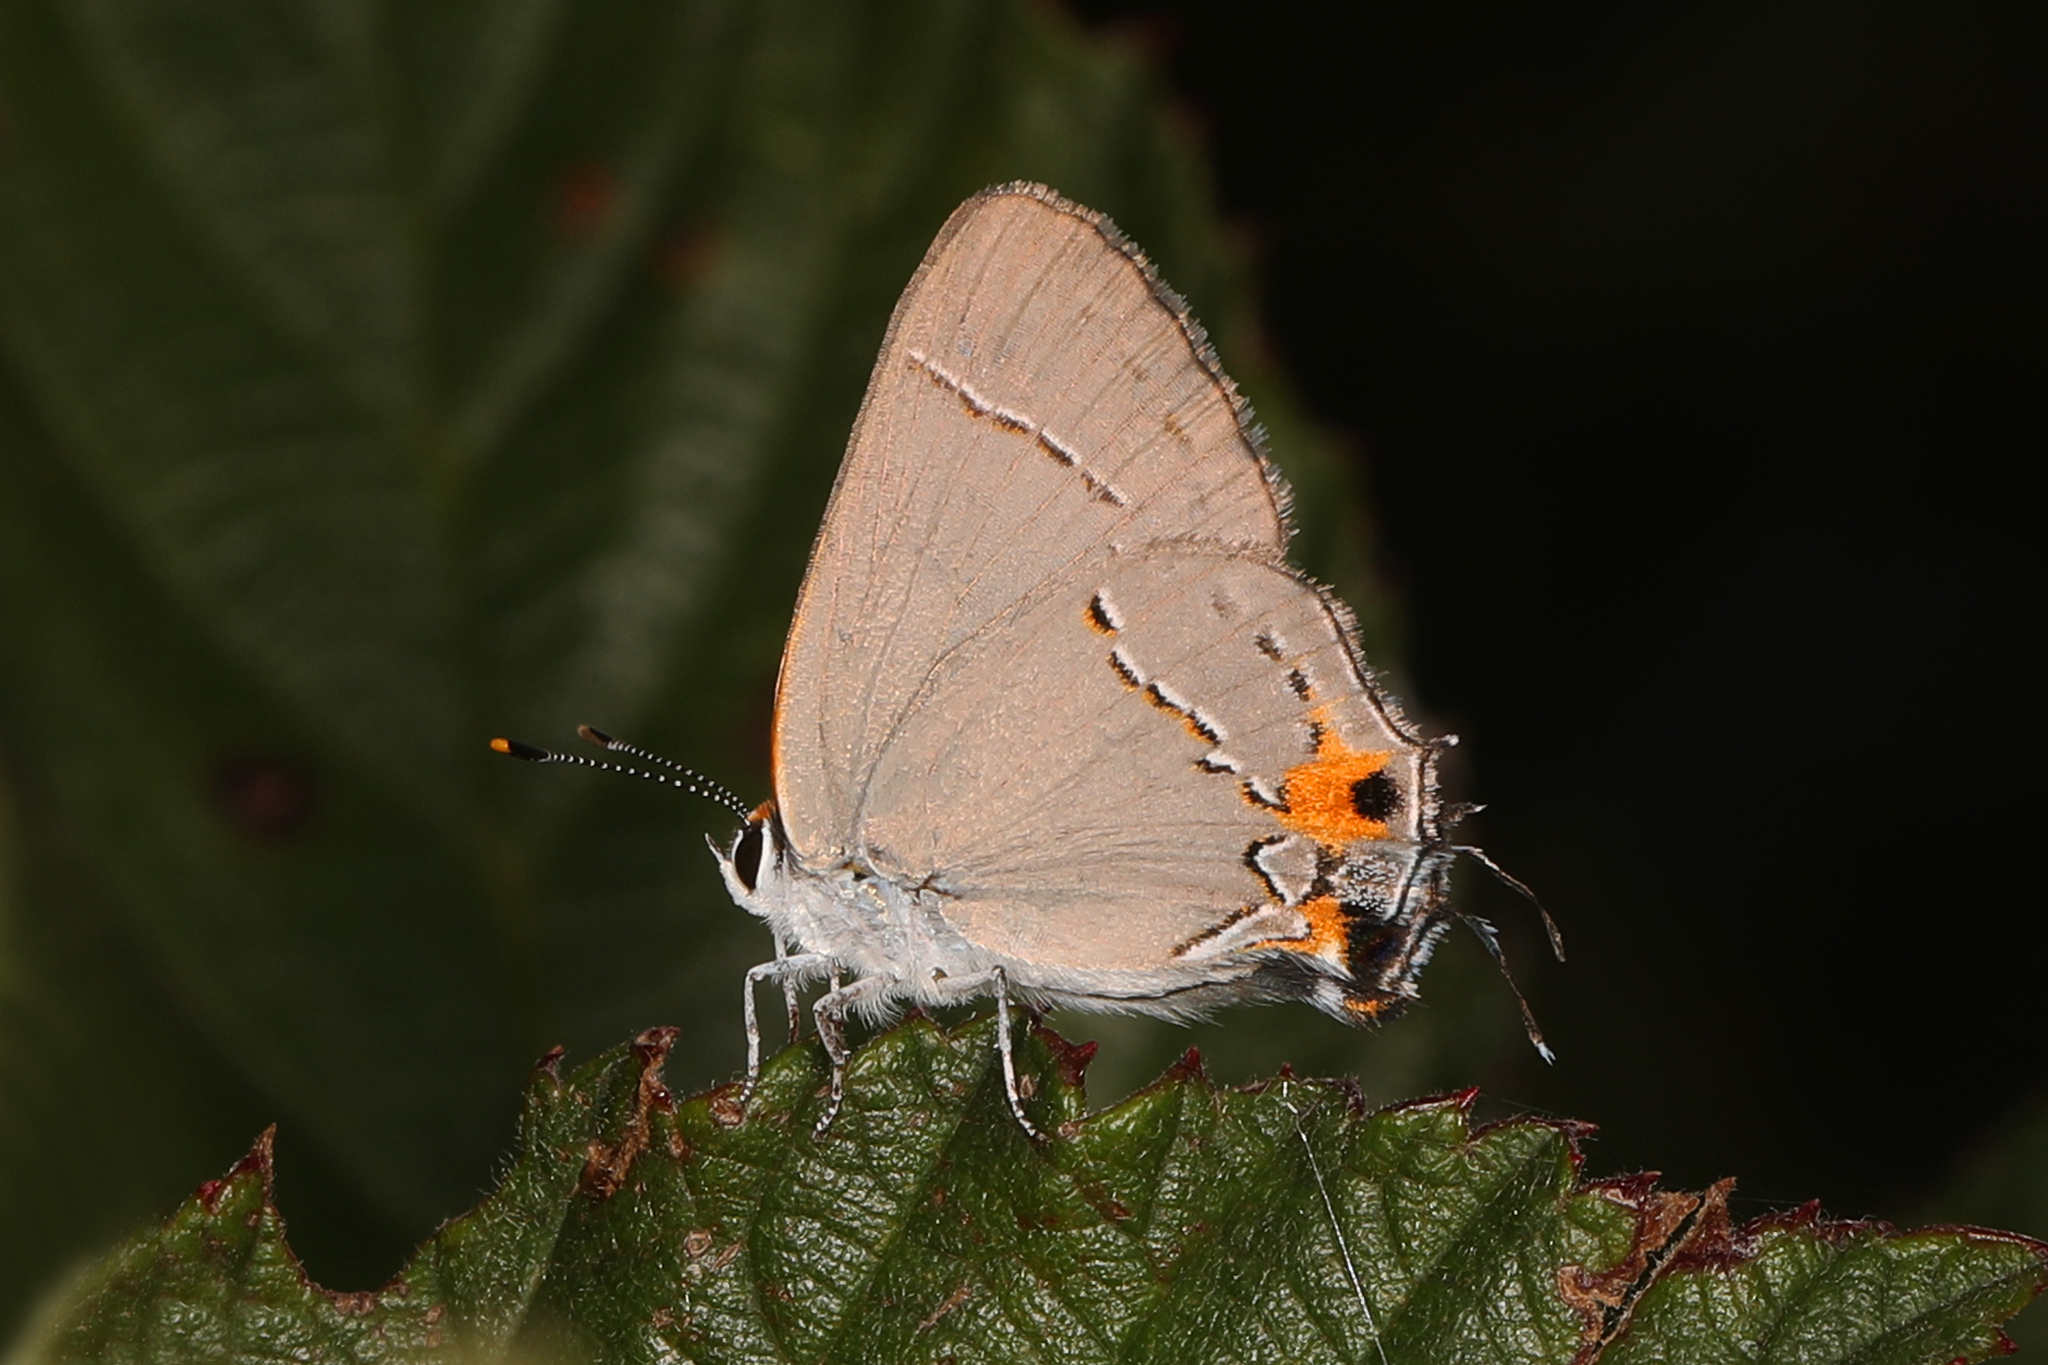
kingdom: Animalia
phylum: Arthropoda
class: Insecta
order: Lepidoptera
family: Lycaenidae
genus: Strymon
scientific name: Strymon melinus
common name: Gray hairstreak
